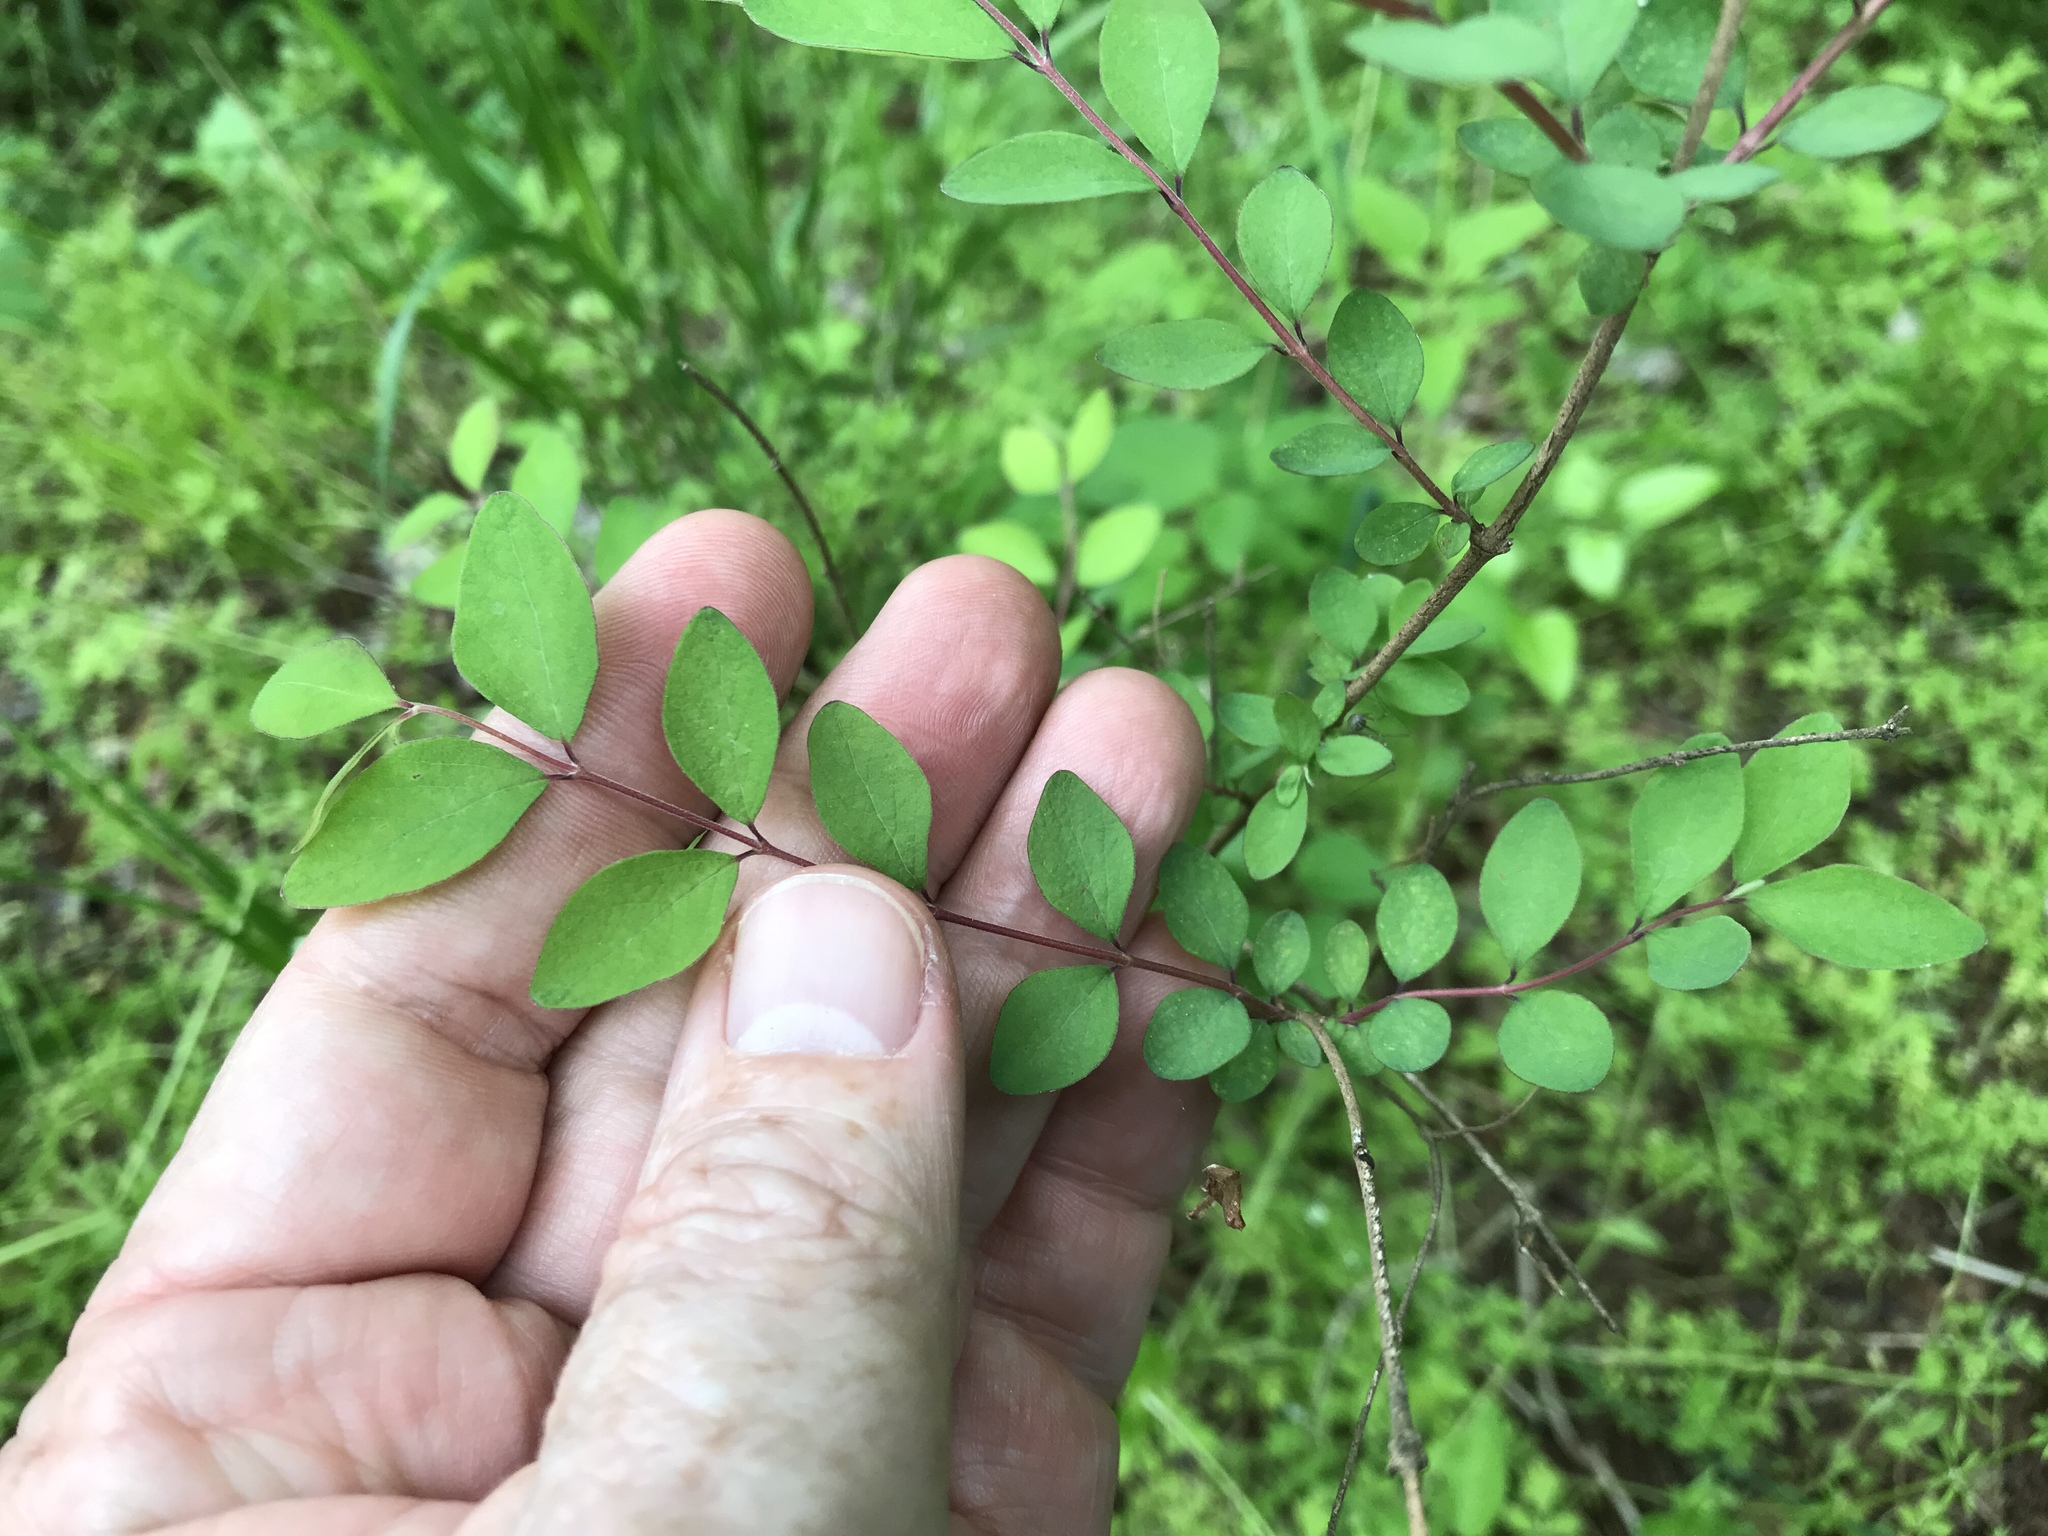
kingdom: Plantae
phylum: Tracheophyta
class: Magnoliopsida
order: Dipsacales
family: Caprifoliaceae
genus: Symphoricarpos
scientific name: Symphoricarpos orbiculatus
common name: Coralberry
